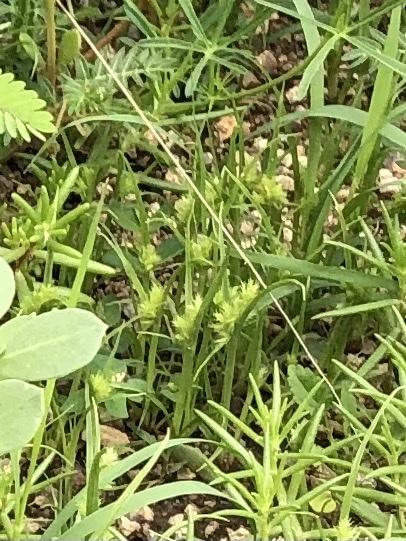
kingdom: Plantae
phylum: Tracheophyta
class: Liliopsida
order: Poales
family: Cyperaceae
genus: Cyperus
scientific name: Cyperus squarrosus
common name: Awned cyperus
